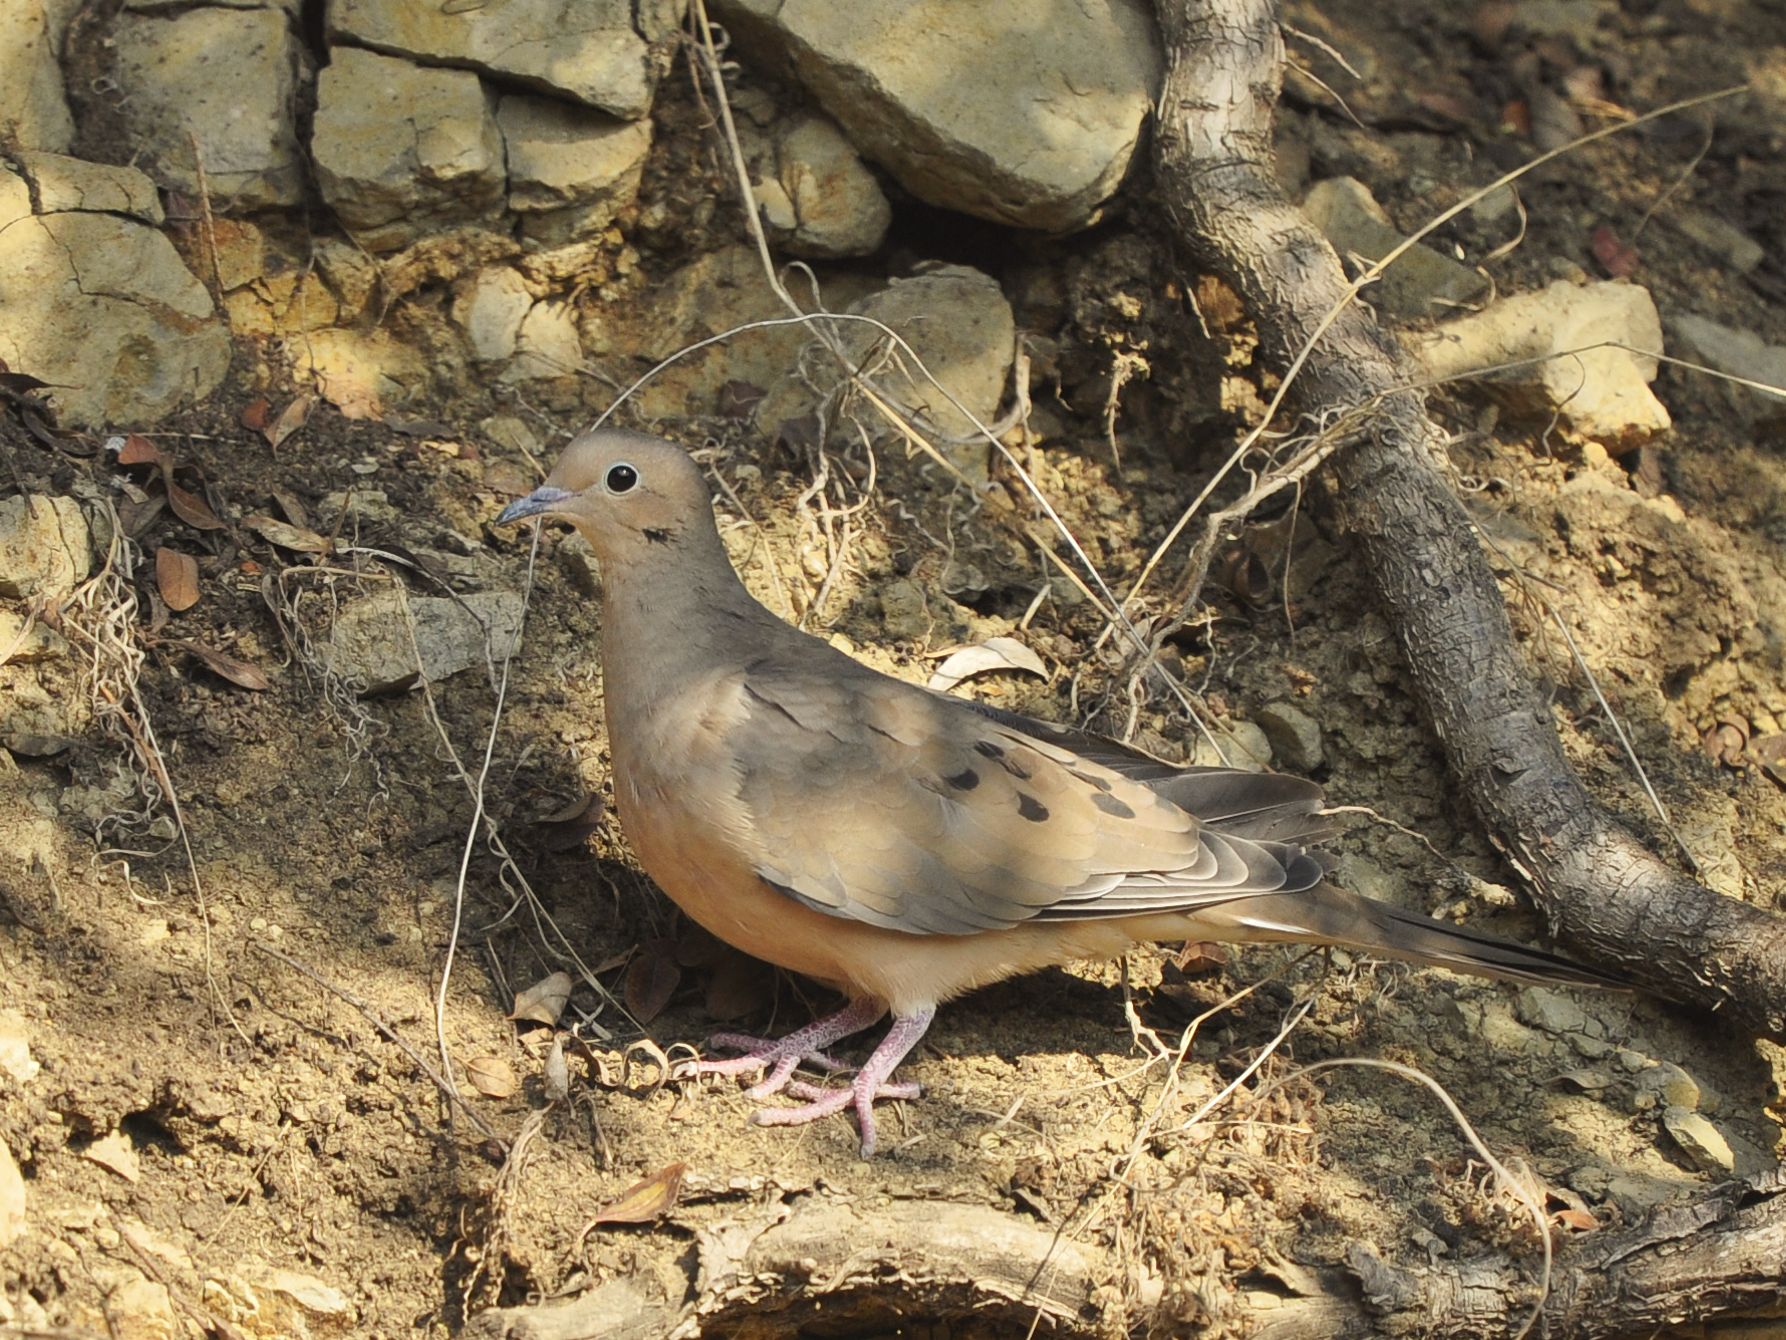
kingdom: Animalia
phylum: Chordata
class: Aves
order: Columbiformes
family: Columbidae
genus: Zenaida
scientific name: Zenaida macroura
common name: Mourning dove
